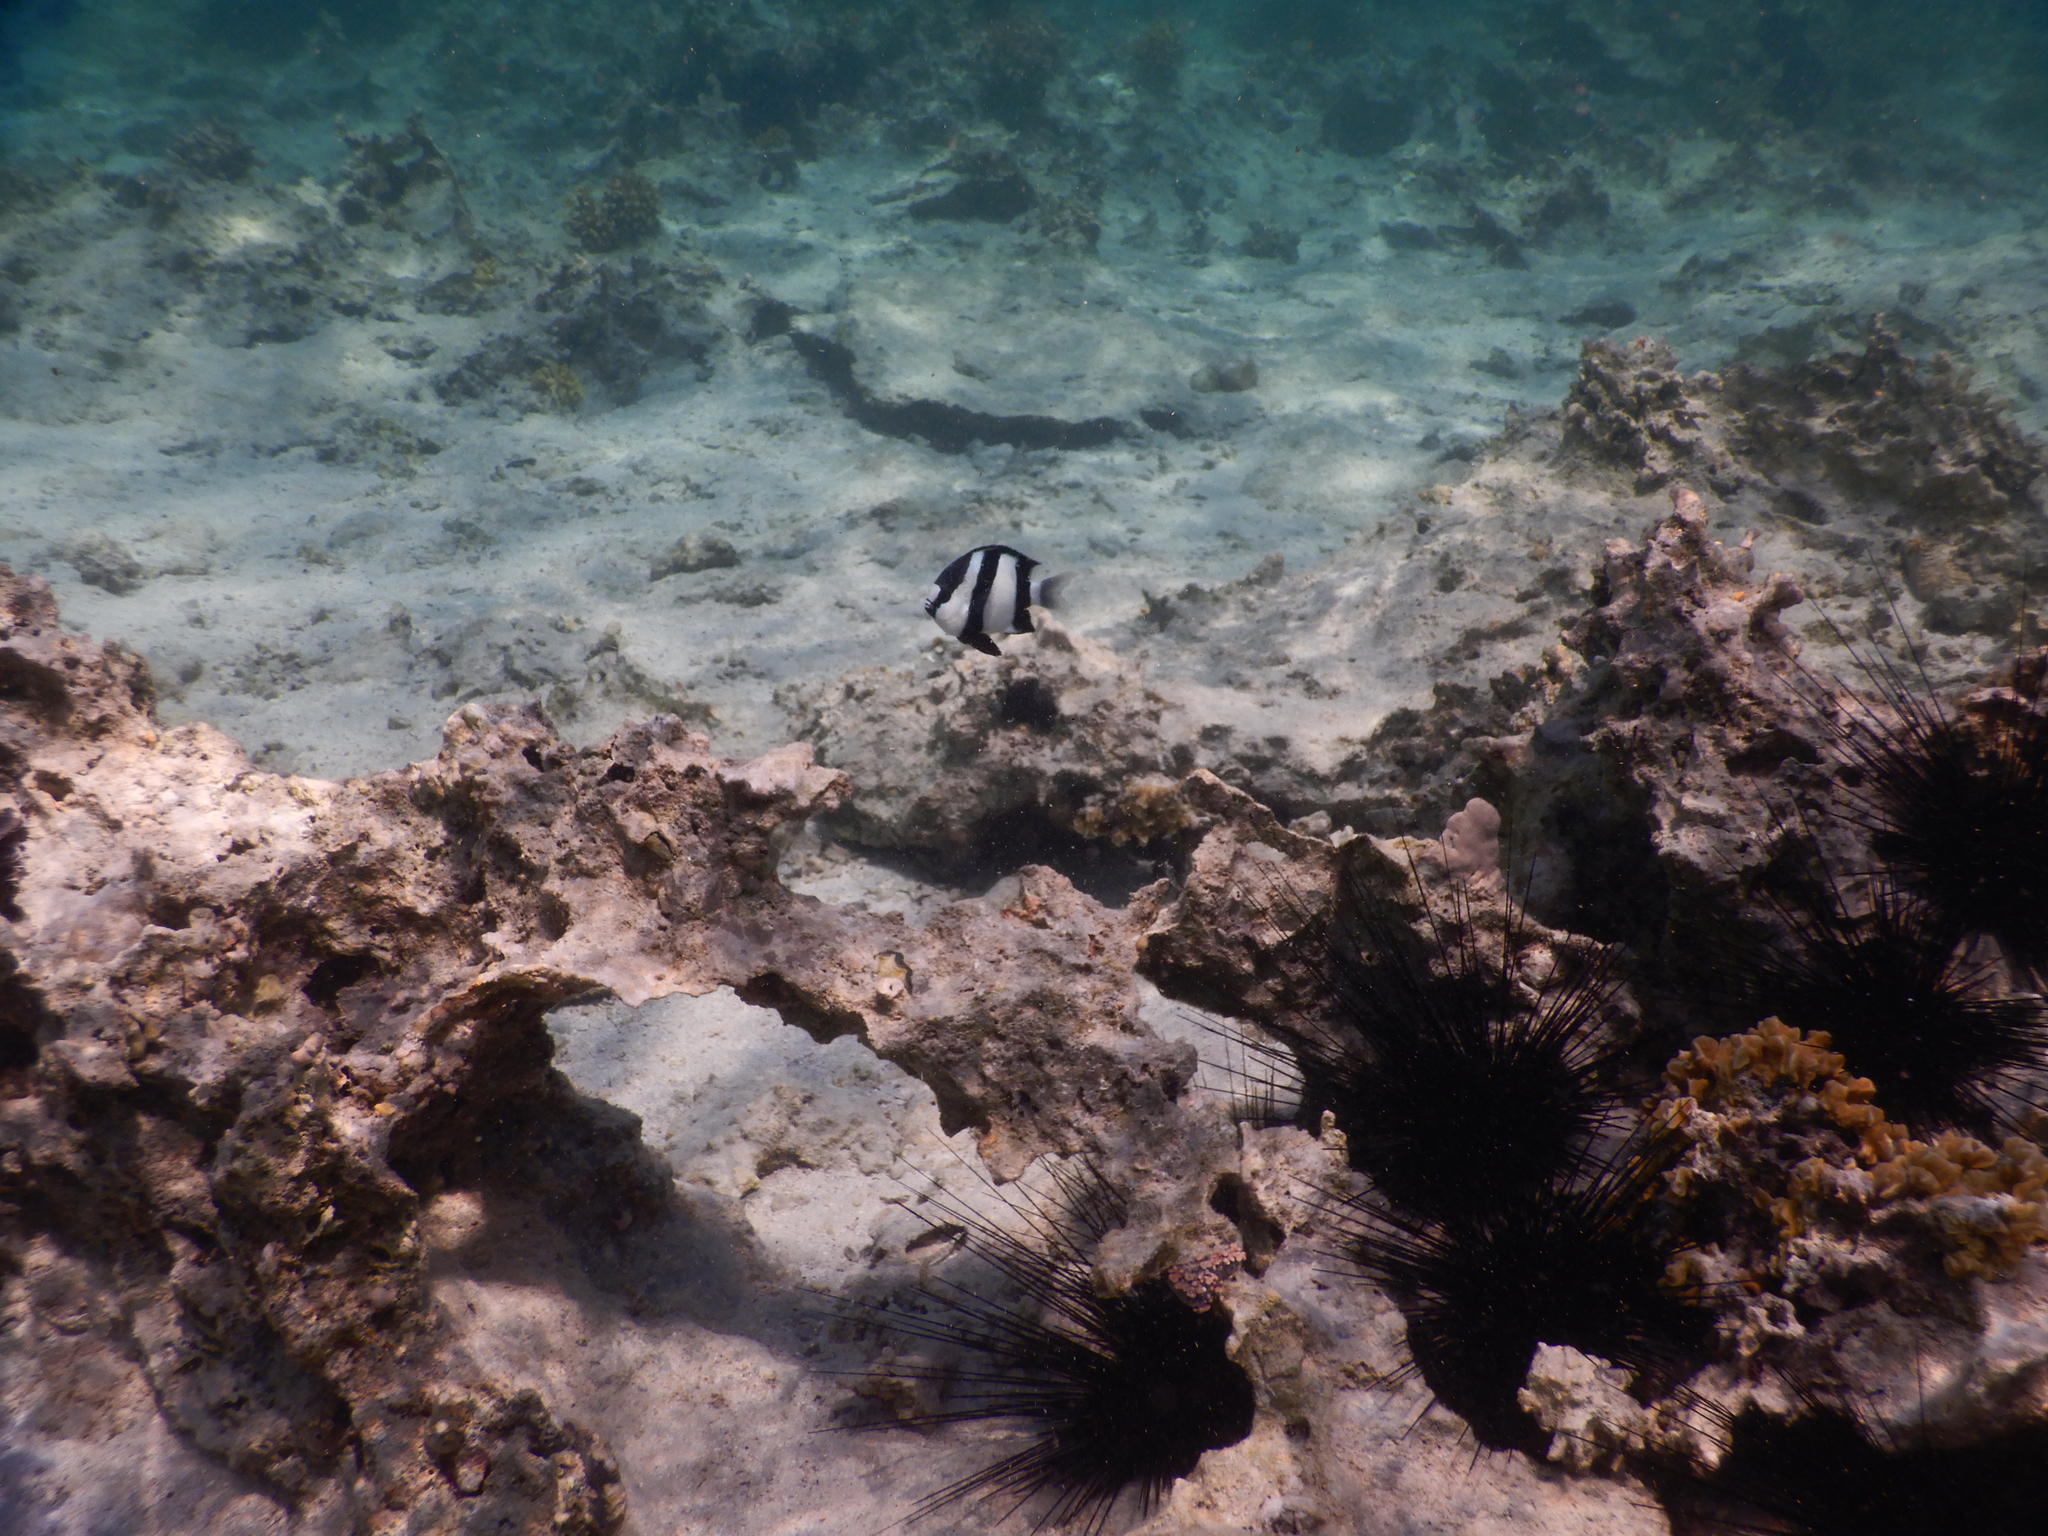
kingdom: Animalia
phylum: Chordata
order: Perciformes
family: Pomacentridae
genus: Dascyllus
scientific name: Dascyllus abudafur
